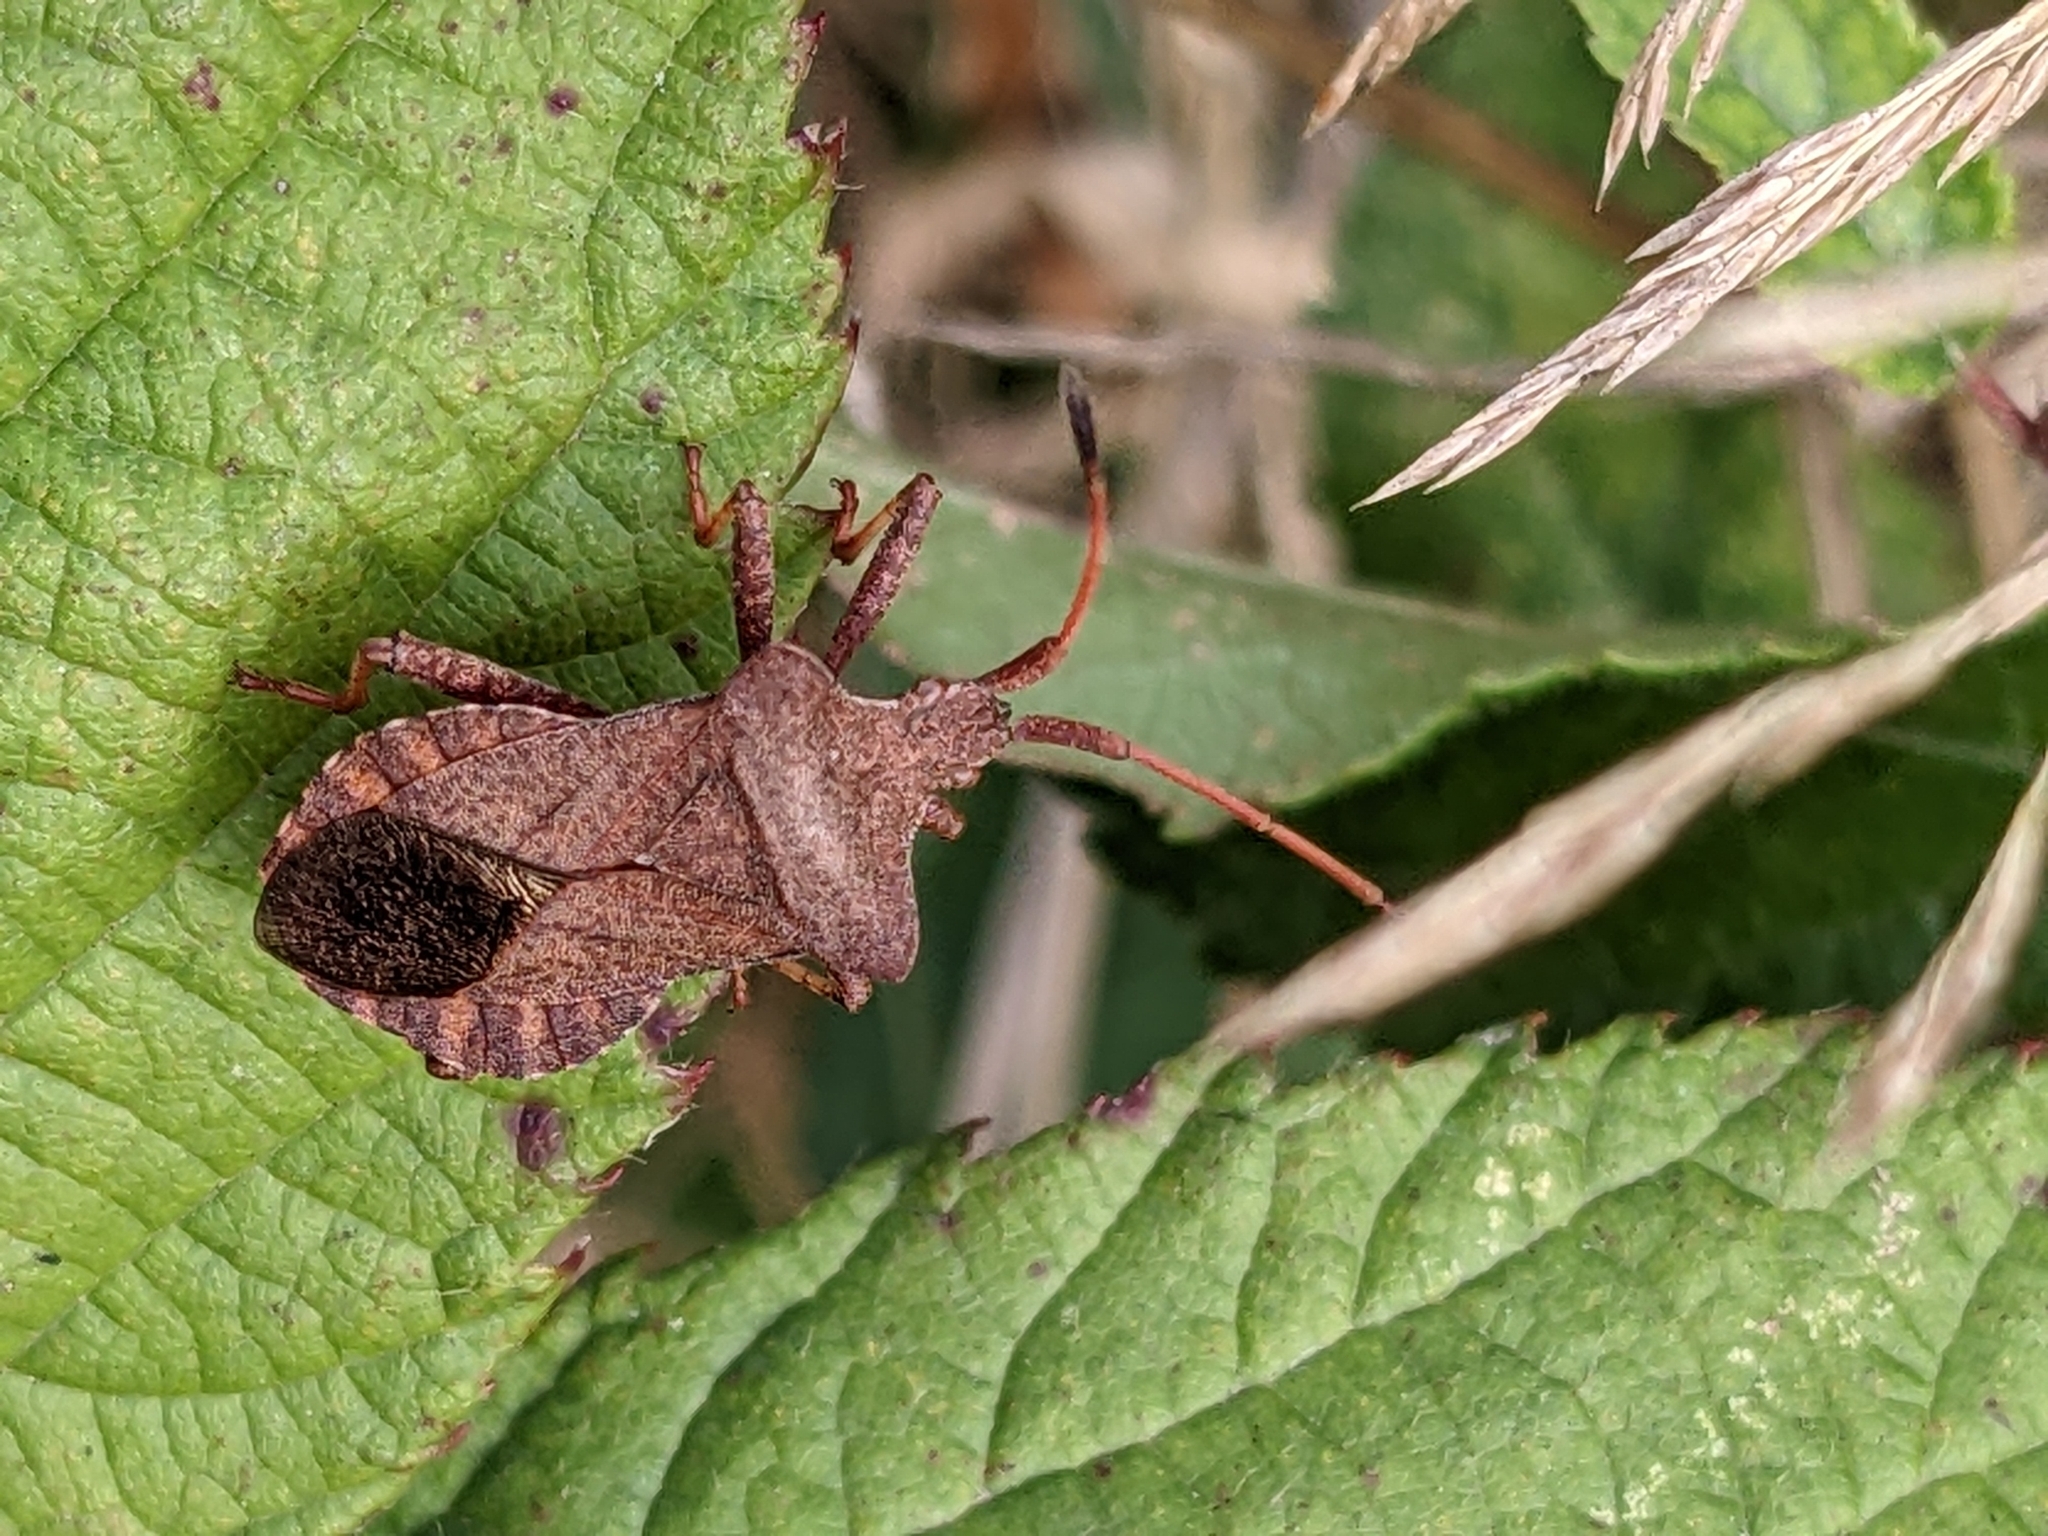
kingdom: Animalia
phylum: Arthropoda
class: Insecta
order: Hemiptera
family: Coreidae
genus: Coreus
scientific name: Coreus marginatus
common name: Dock bug
